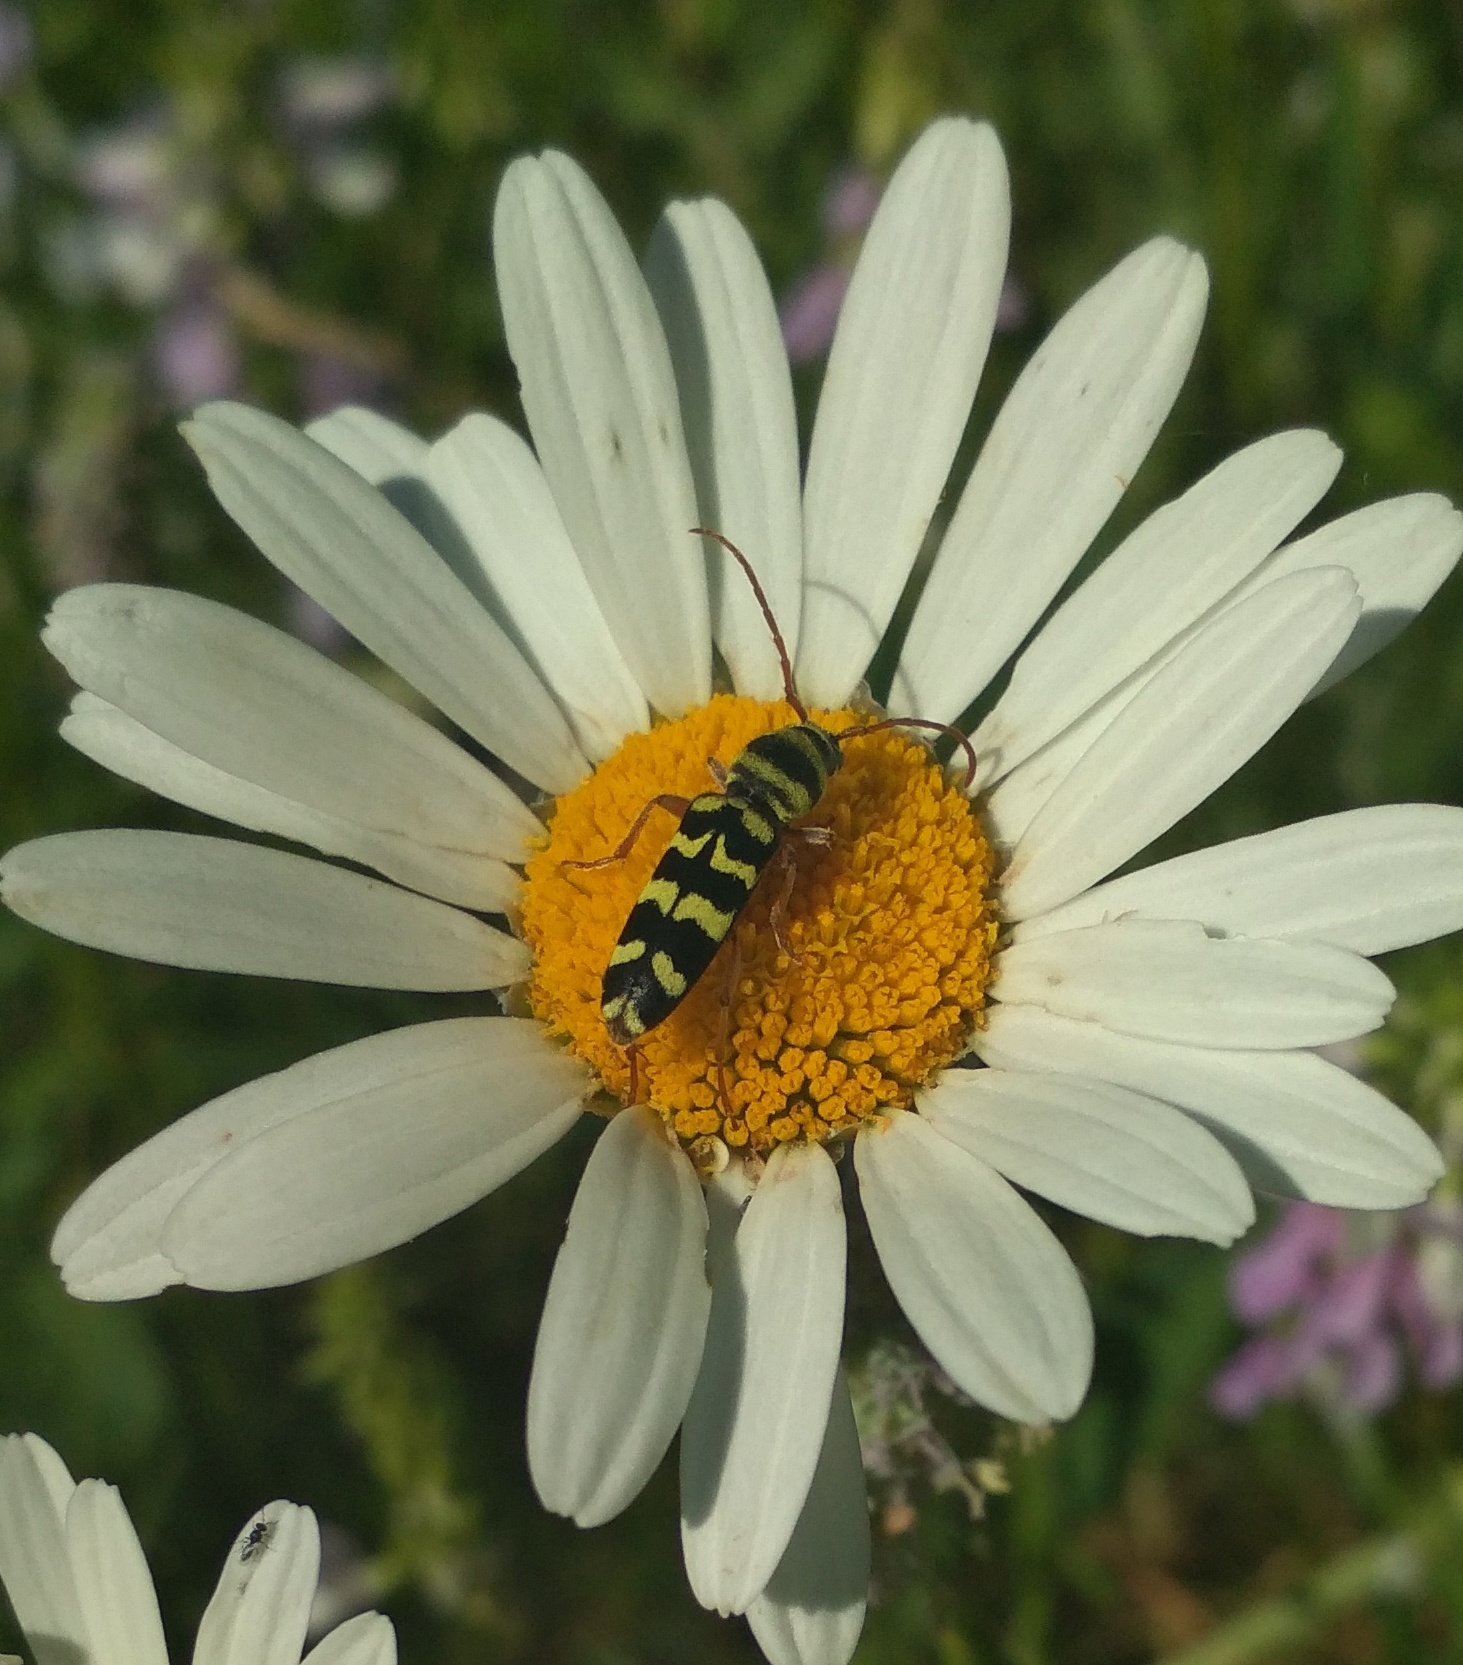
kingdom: Animalia
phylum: Arthropoda
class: Insecta
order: Coleoptera
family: Cerambycidae
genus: Plagionotus
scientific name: Plagionotus floralis
